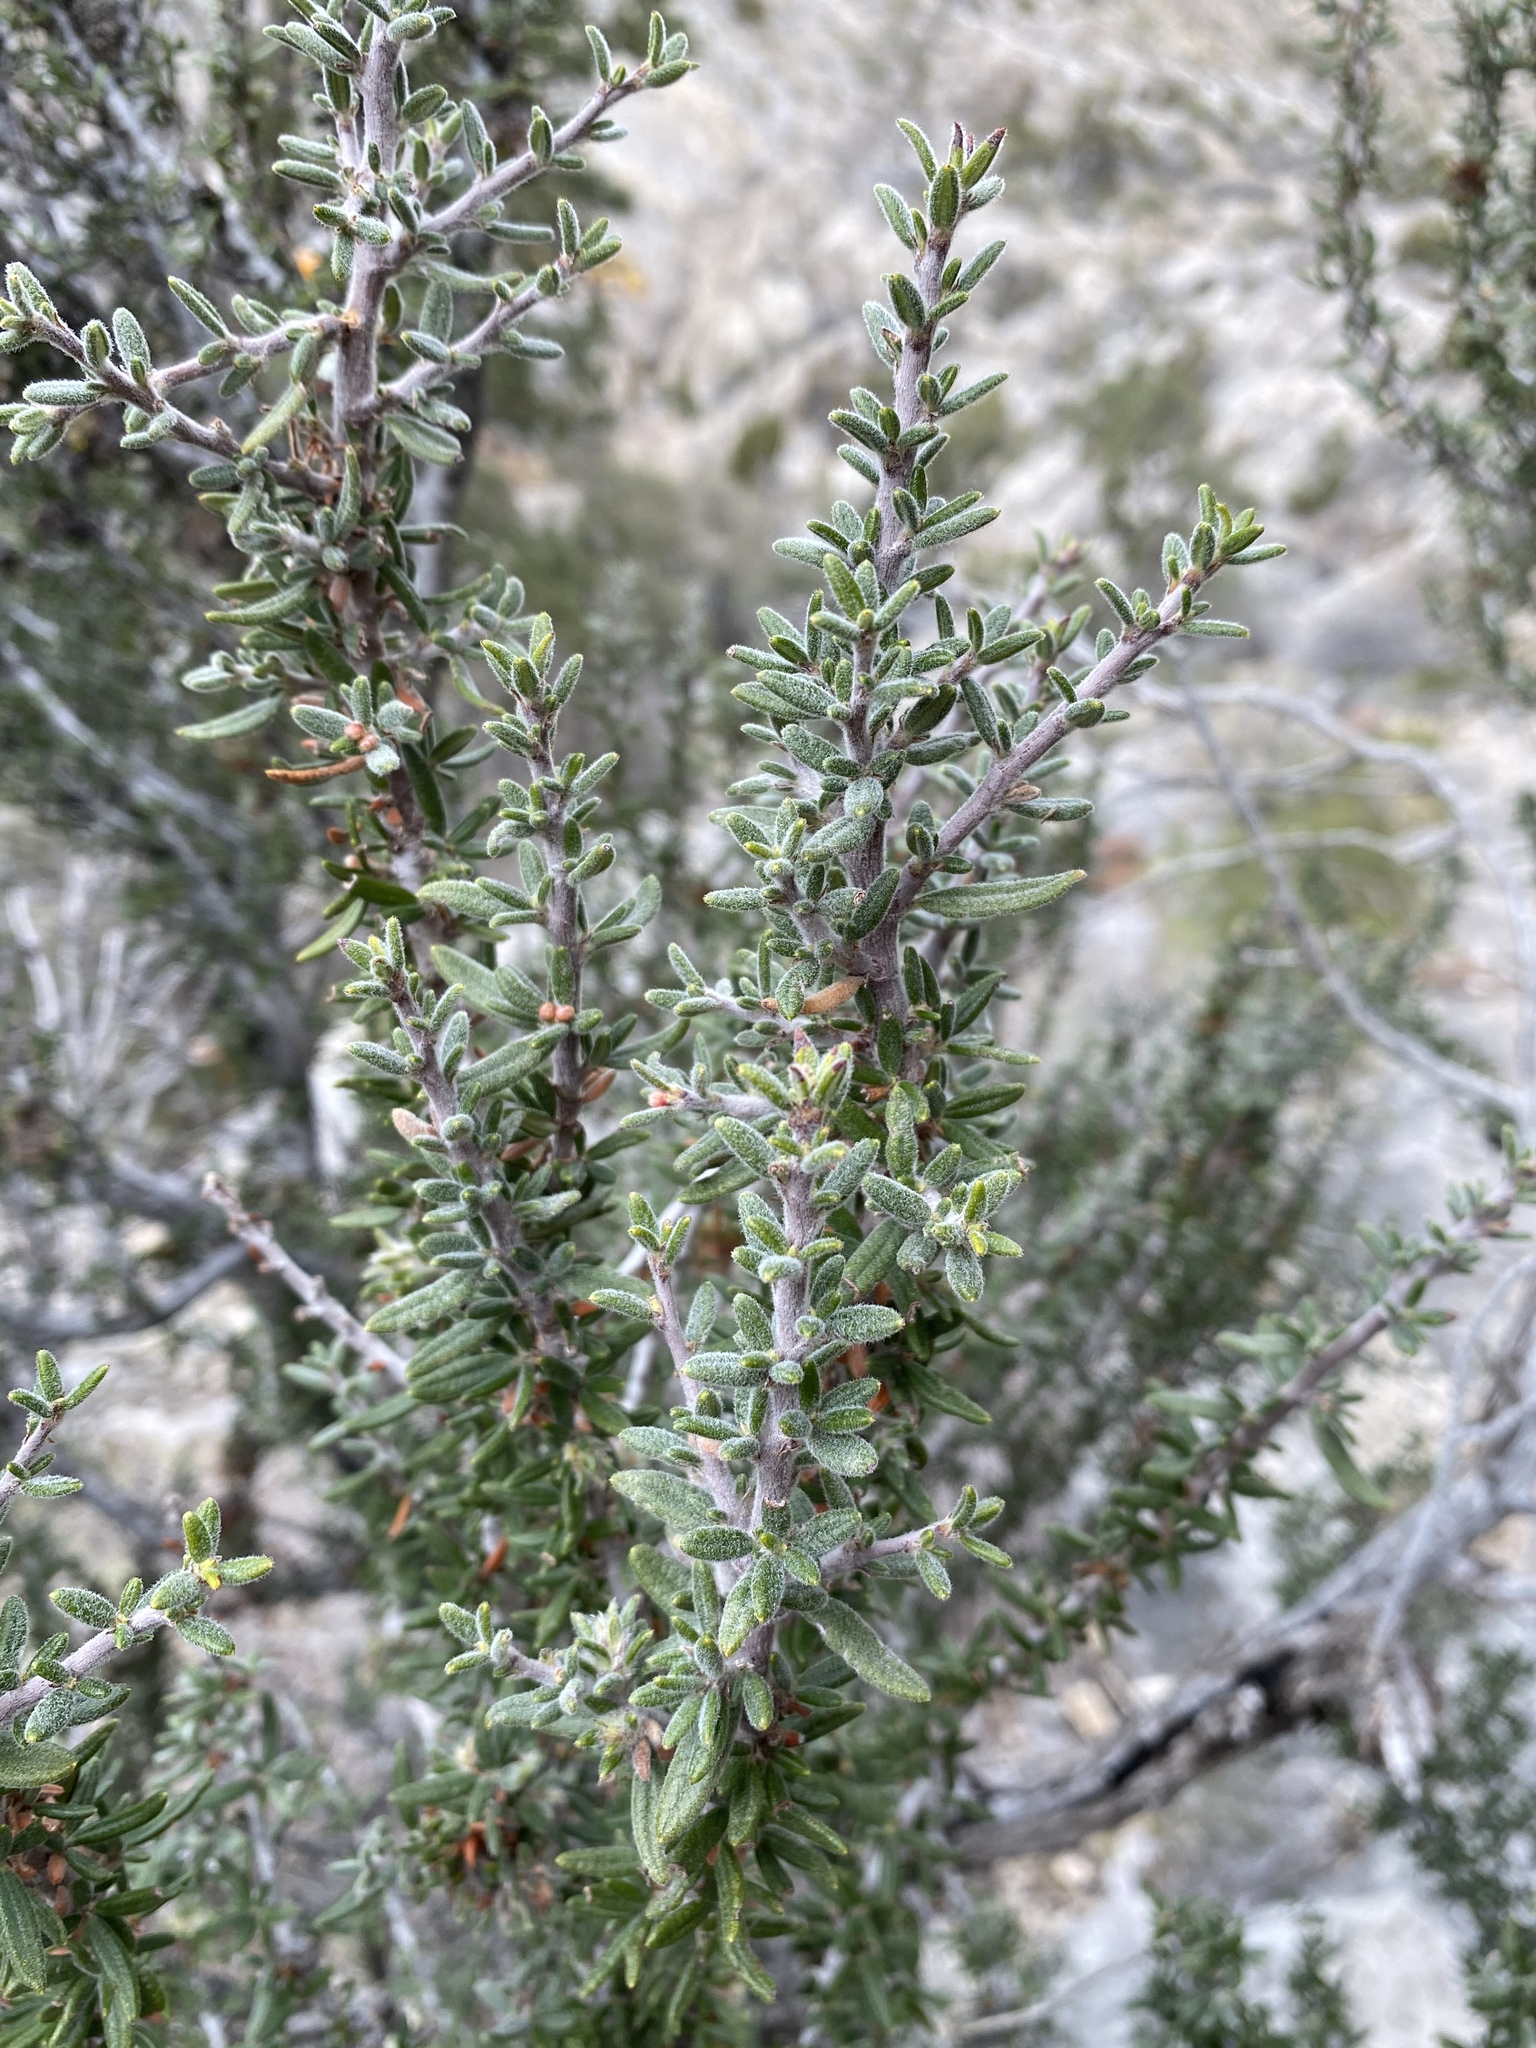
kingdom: Plantae
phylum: Tracheophyta
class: Magnoliopsida
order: Rosales
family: Rosaceae
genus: Cercocarpus
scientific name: Cercocarpus intricatus
